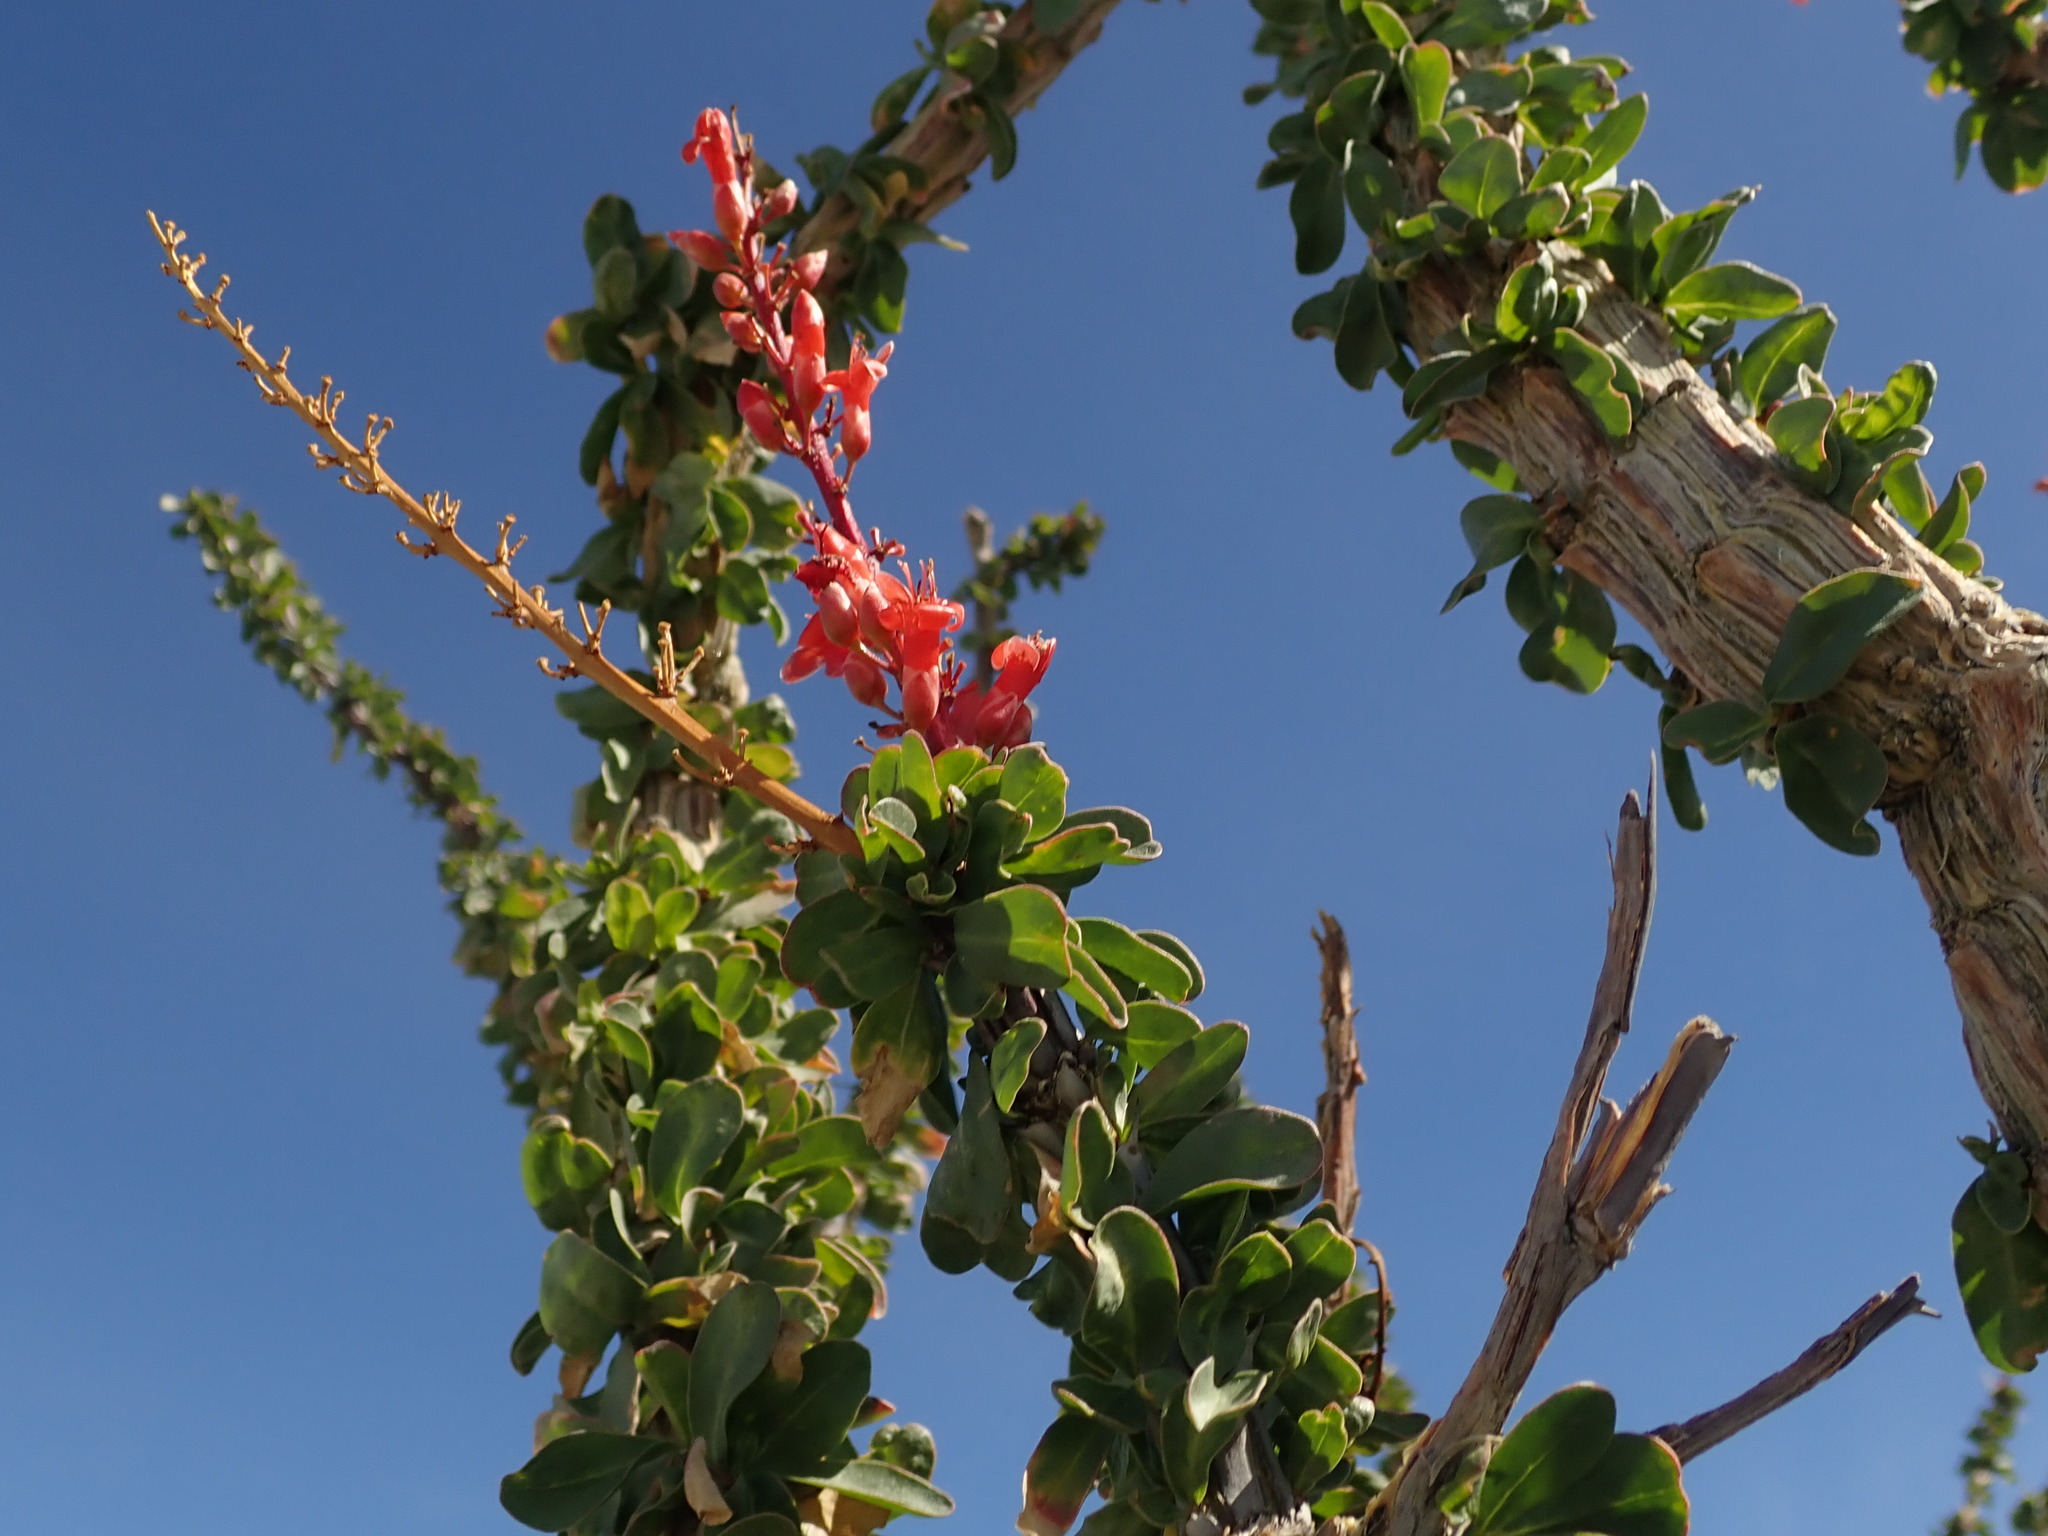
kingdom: Plantae
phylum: Tracheophyta
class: Magnoliopsida
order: Ericales
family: Fouquieriaceae
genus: Fouquieria
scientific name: Fouquieria splendens
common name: Vine-cactus
